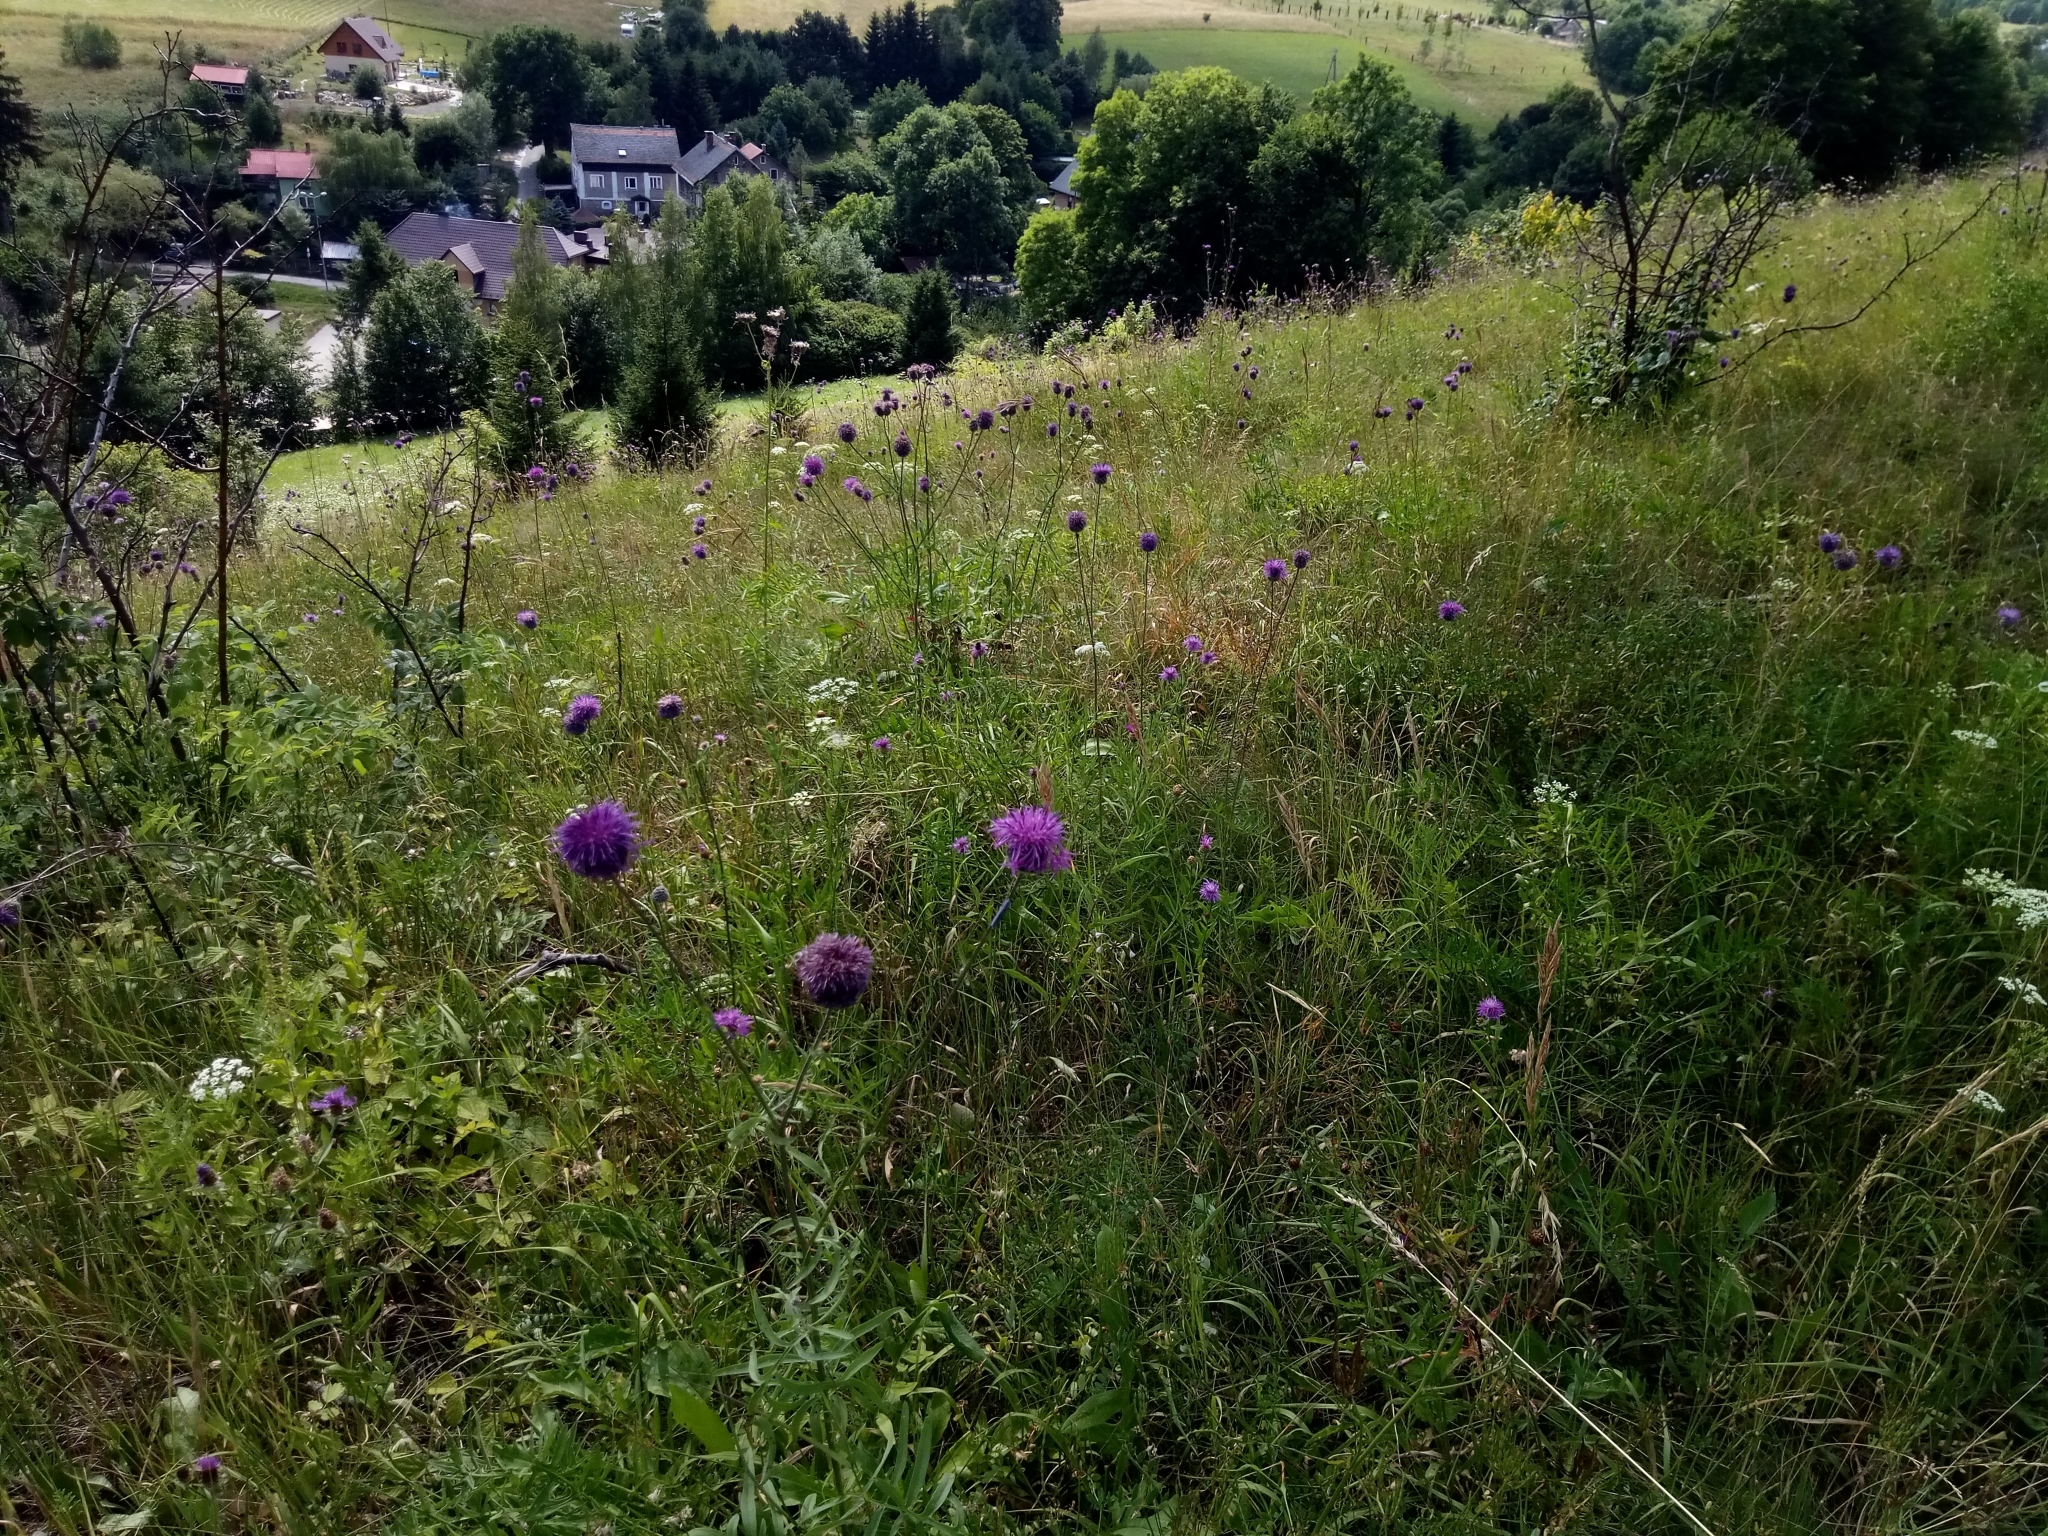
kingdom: Plantae
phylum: Tracheophyta
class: Magnoliopsida
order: Asterales
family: Asteraceae
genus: Centaurea
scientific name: Centaurea scabiosa
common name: Greater knapweed
